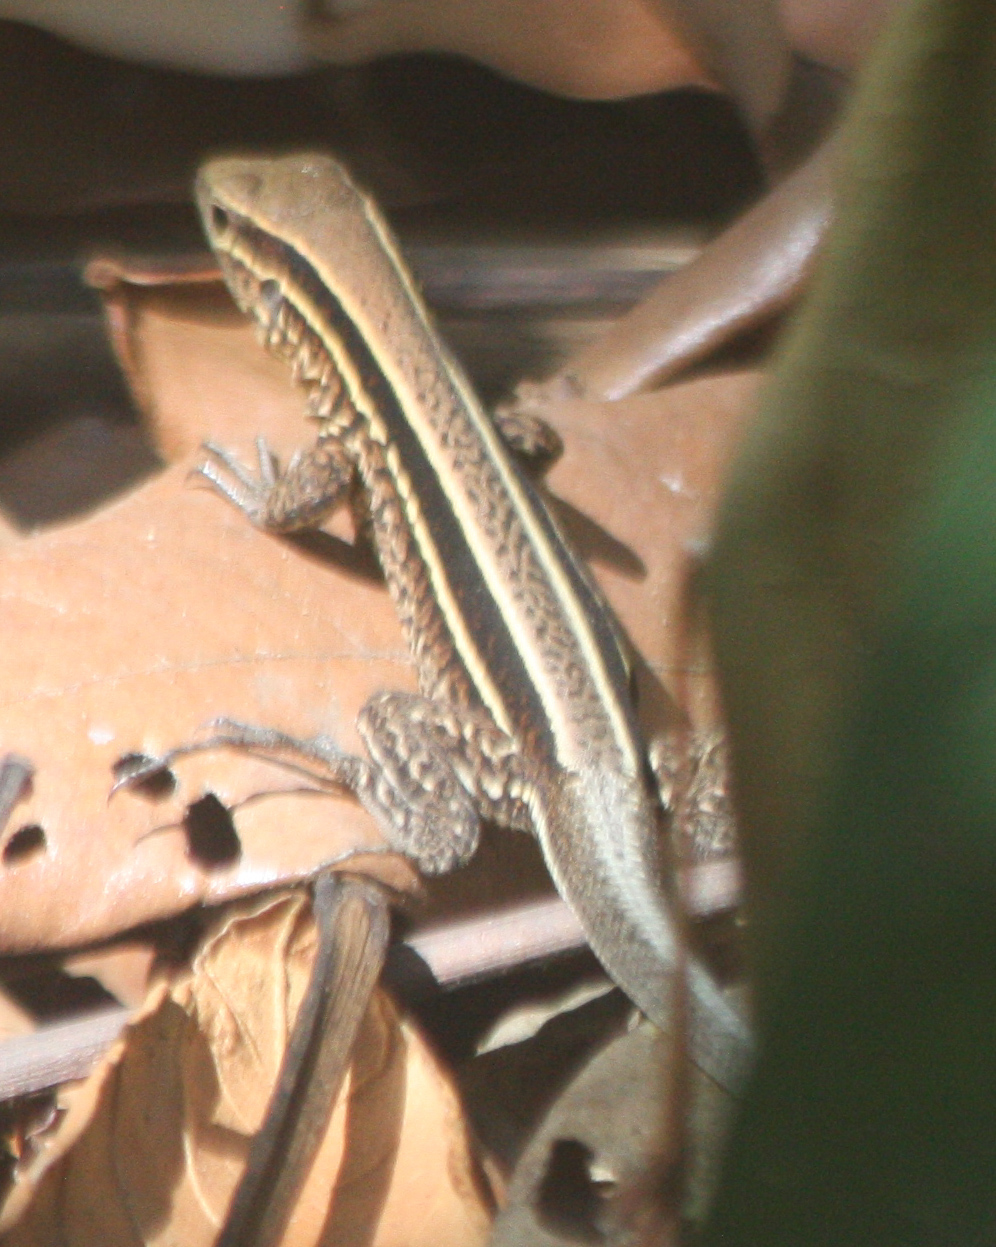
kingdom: Animalia
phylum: Chordata
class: Squamata
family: Teiidae
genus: Holcosus
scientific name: Holcosus quadrilineatus
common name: Four-lined ameiva
